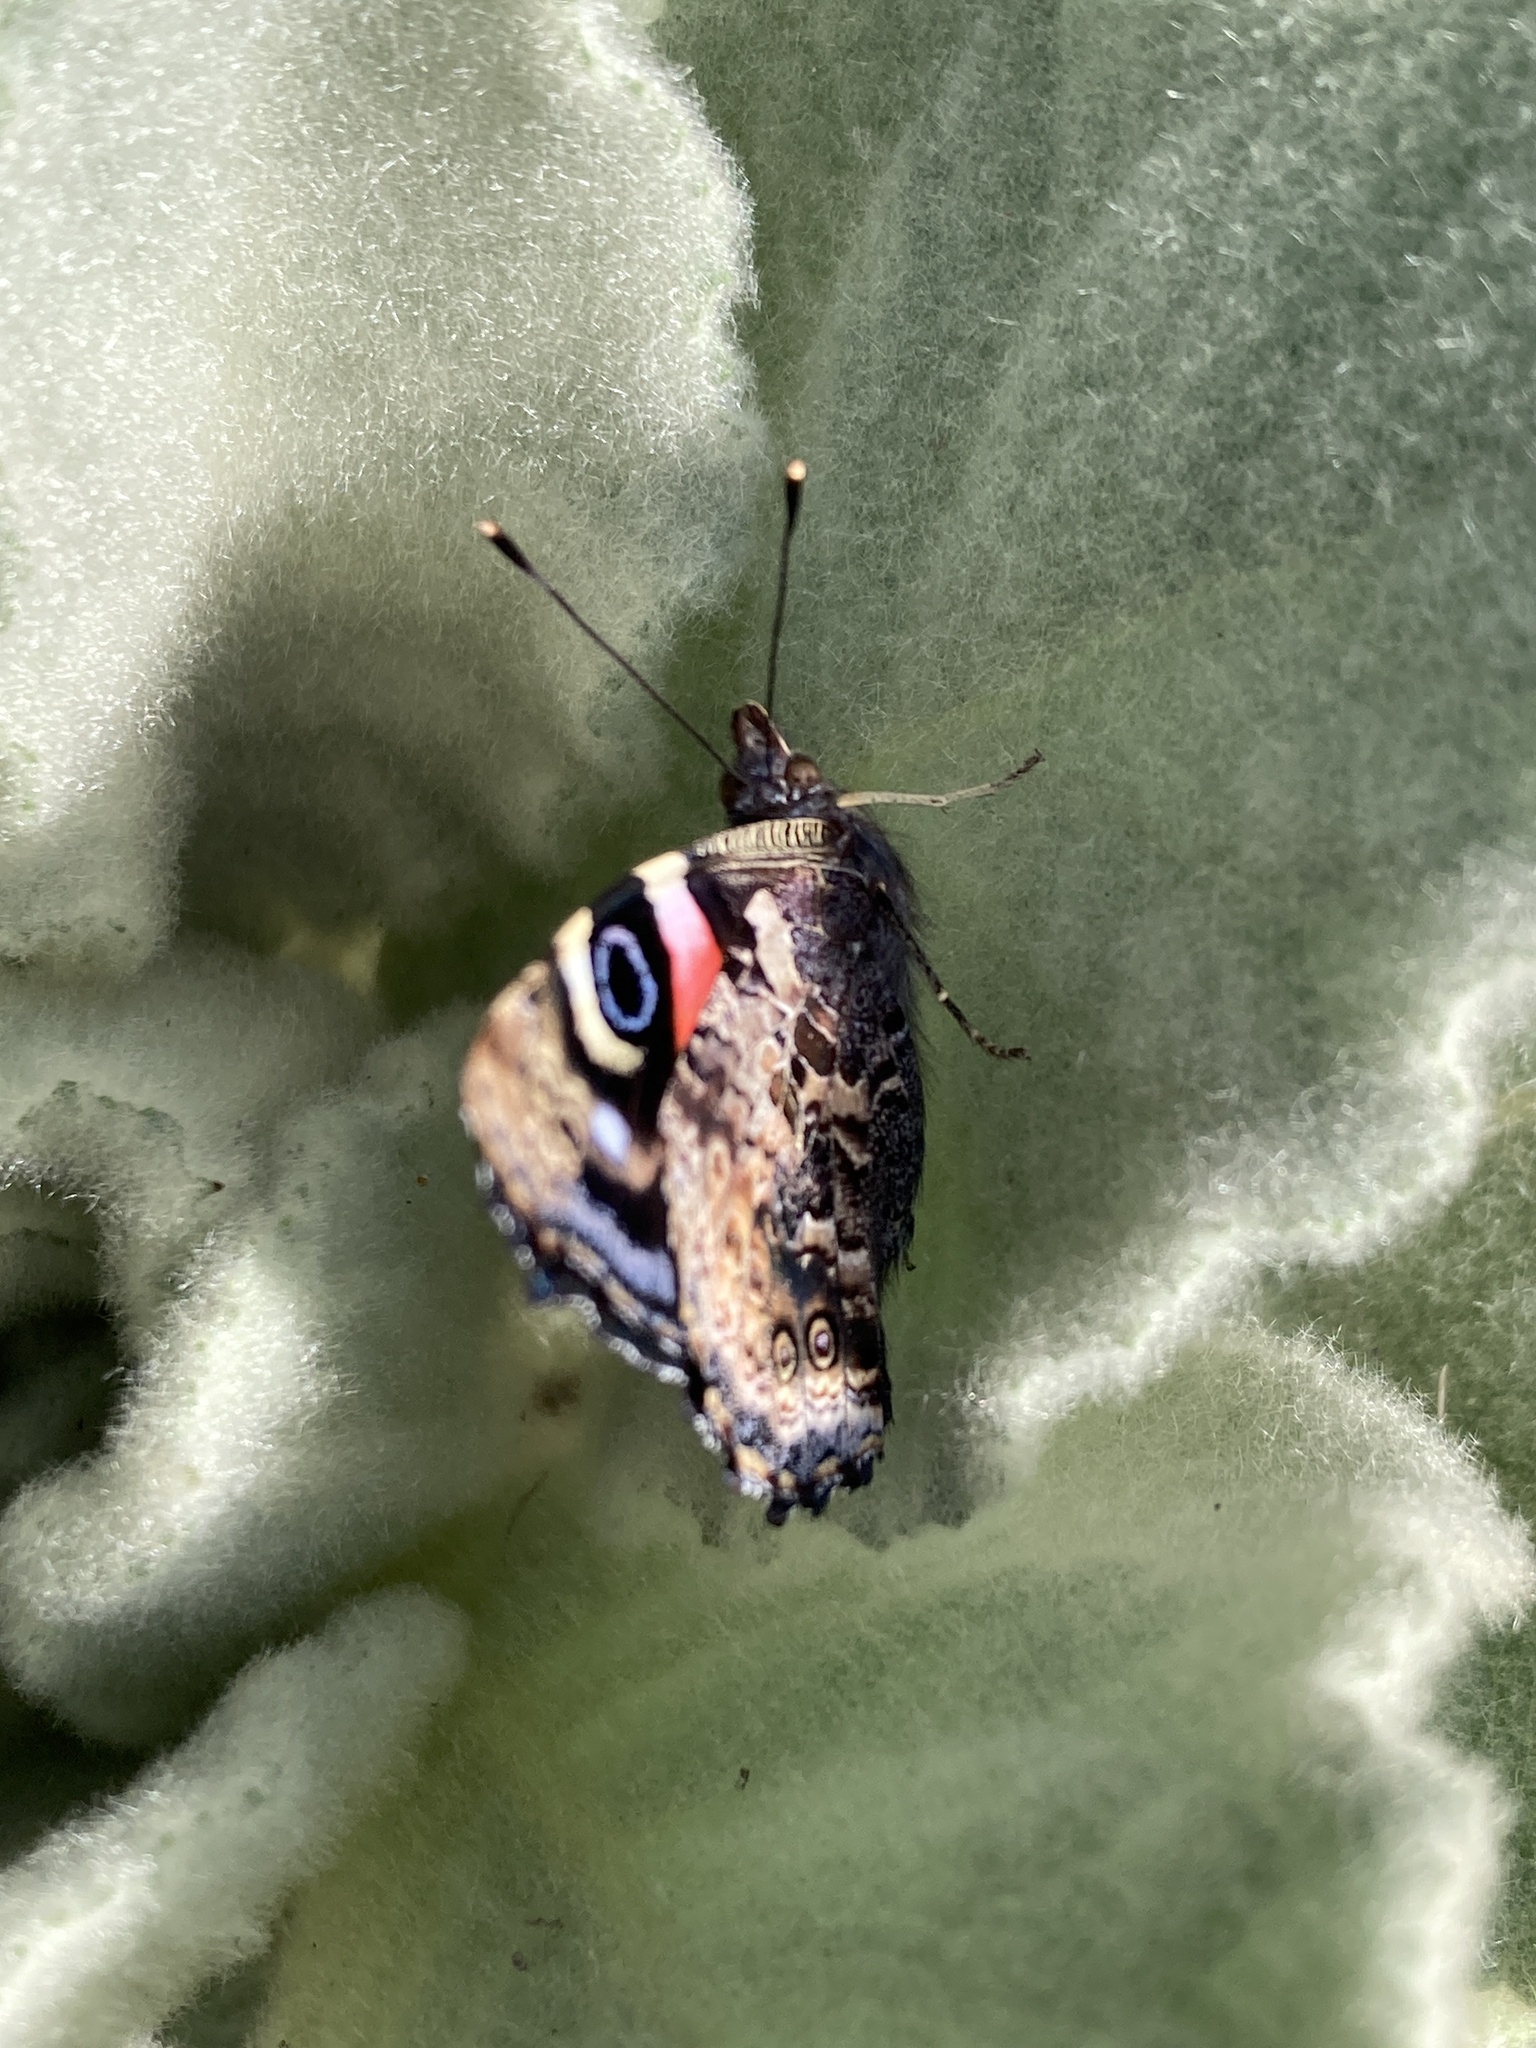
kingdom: Animalia
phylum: Arthropoda
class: Insecta
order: Lepidoptera
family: Nymphalidae
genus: Vanessa
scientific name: Vanessa gonerilla
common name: New zealand red admiral
